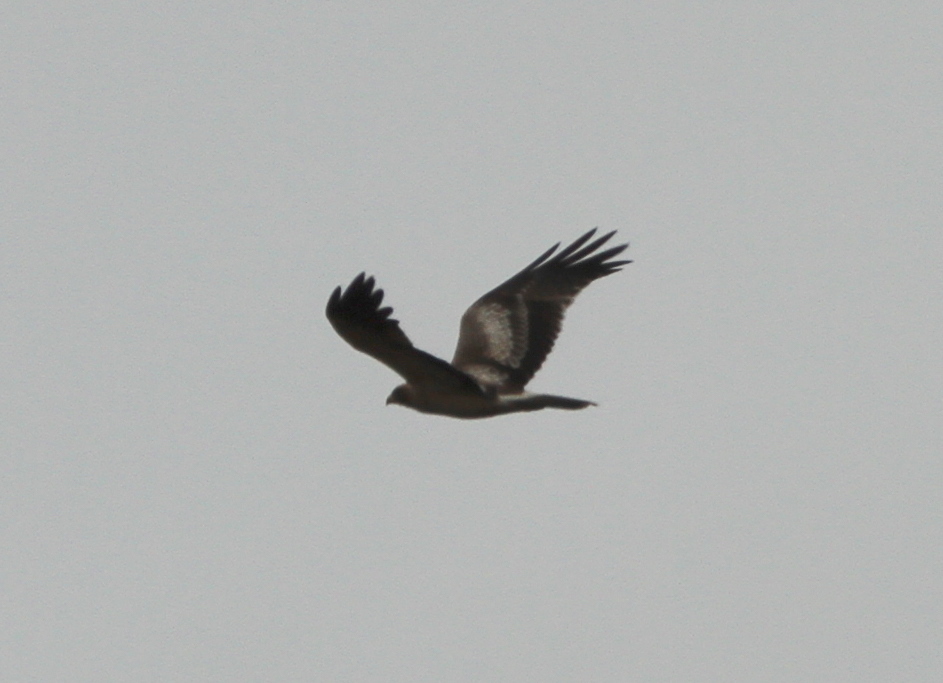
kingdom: Animalia
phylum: Chordata
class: Aves
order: Accipitriformes
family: Accipitridae
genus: Hieraaetus
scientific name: Hieraaetus pennatus
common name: Booted eagle
